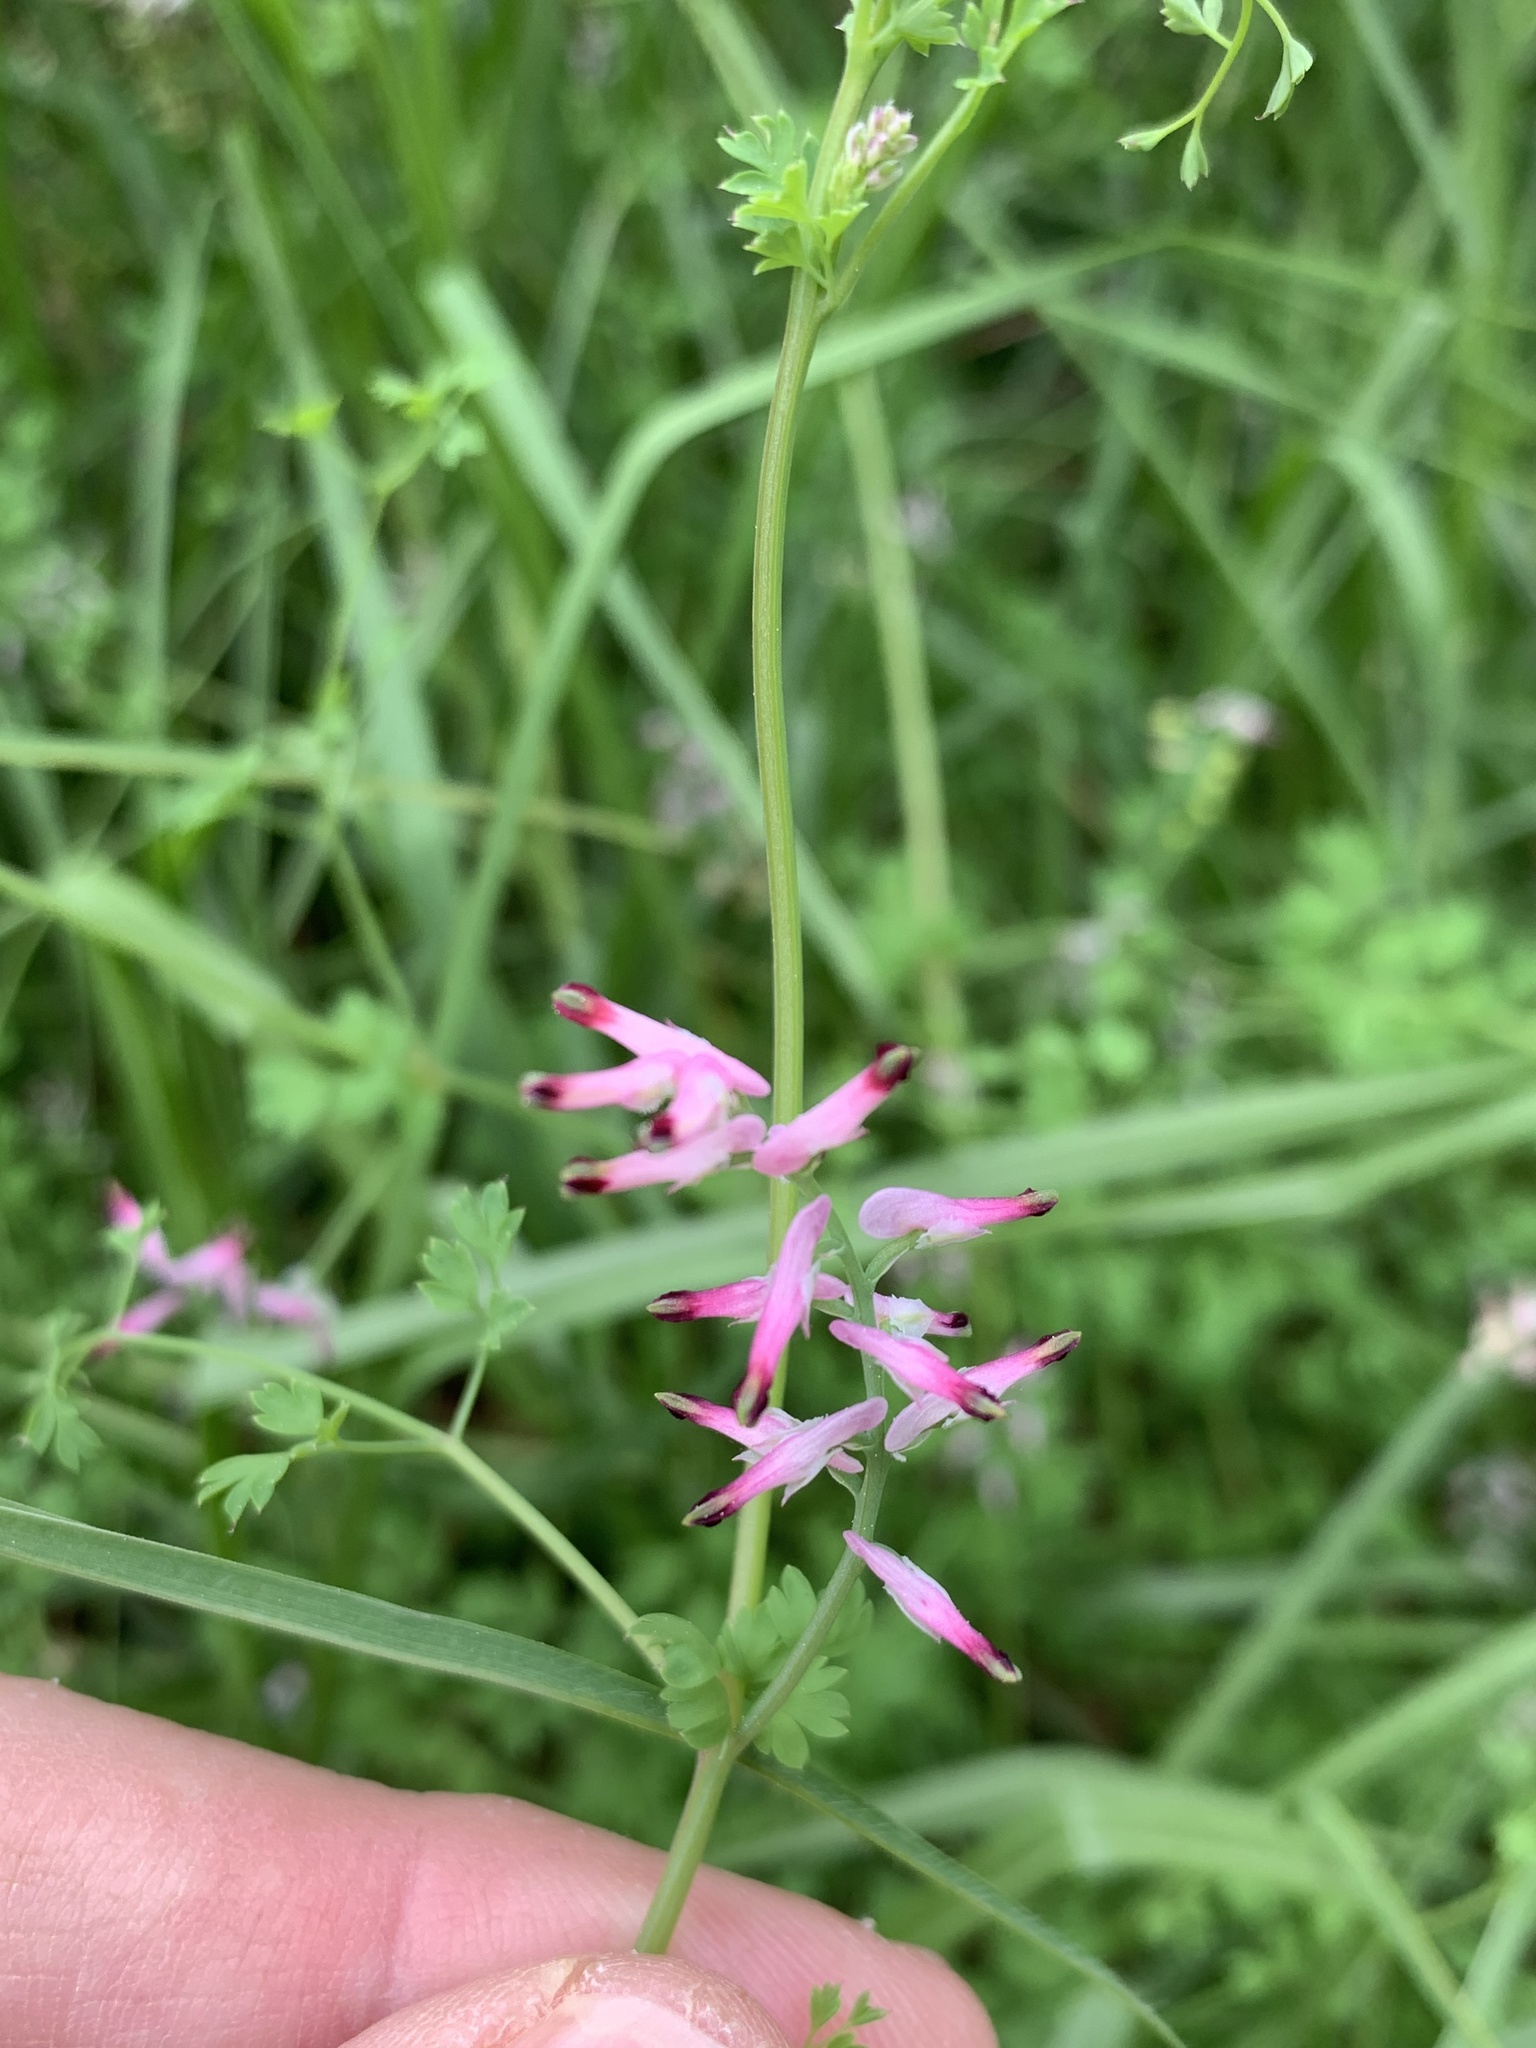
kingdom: Plantae
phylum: Tracheophyta
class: Magnoliopsida
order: Ranunculales
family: Papaveraceae
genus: Fumaria
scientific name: Fumaria muralis
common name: Common ramping-fumitory
